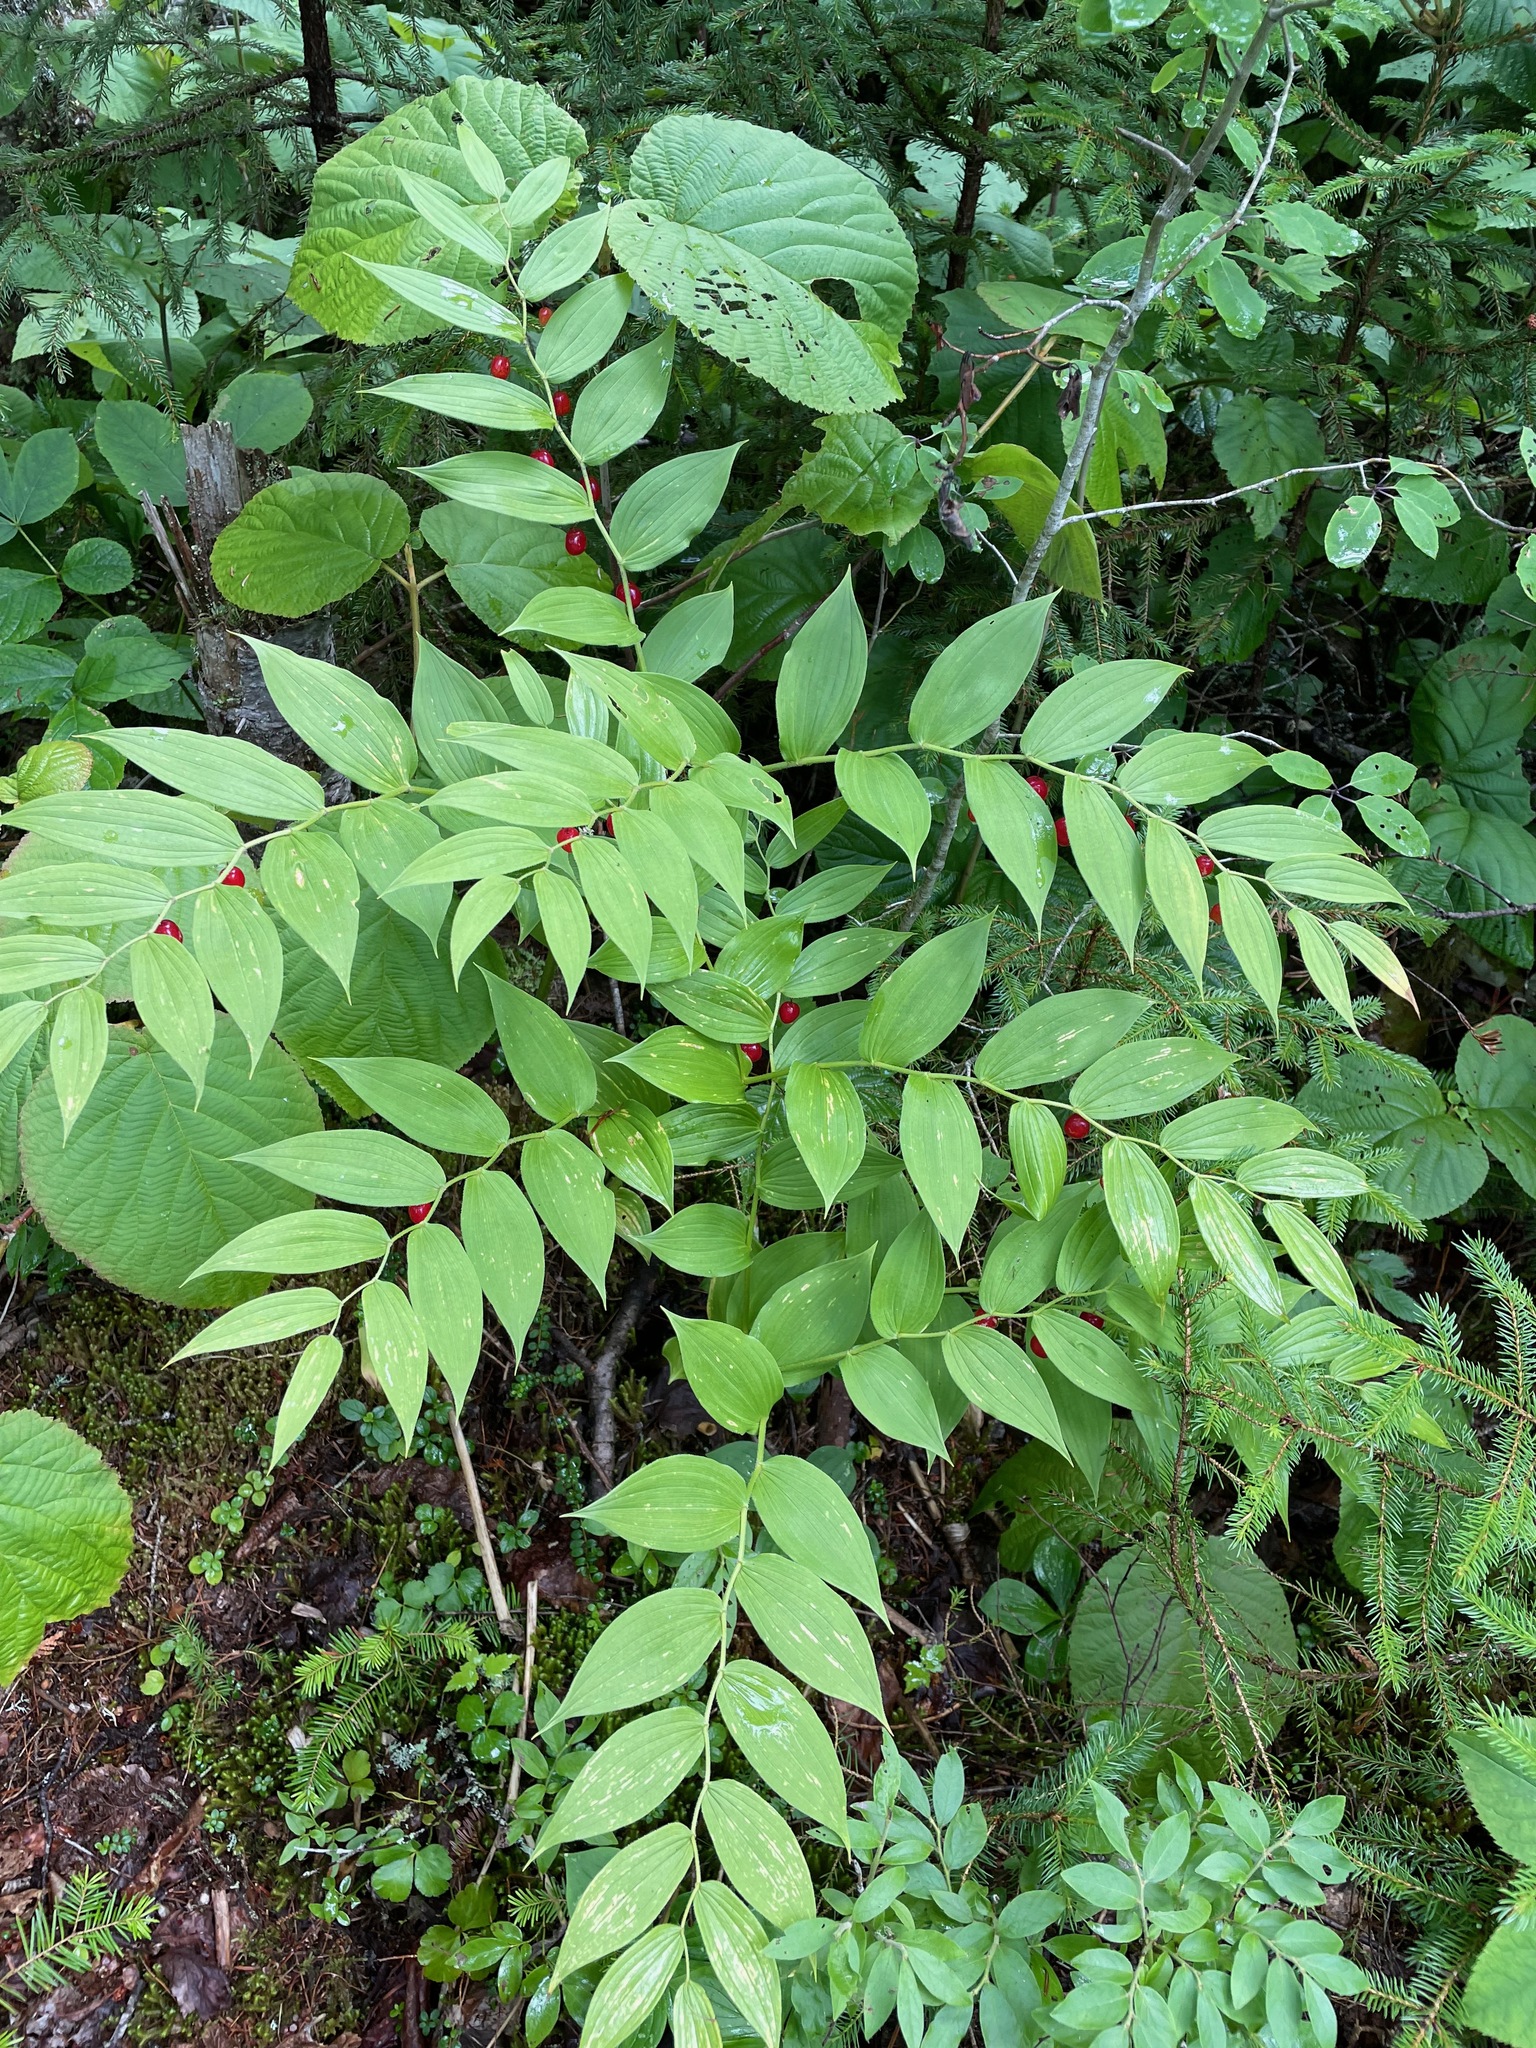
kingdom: Plantae
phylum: Tracheophyta
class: Liliopsida
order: Liliales
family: Liliaceae
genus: Streptopus
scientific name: Streptopus lanceolatus
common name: Rose mandarin
